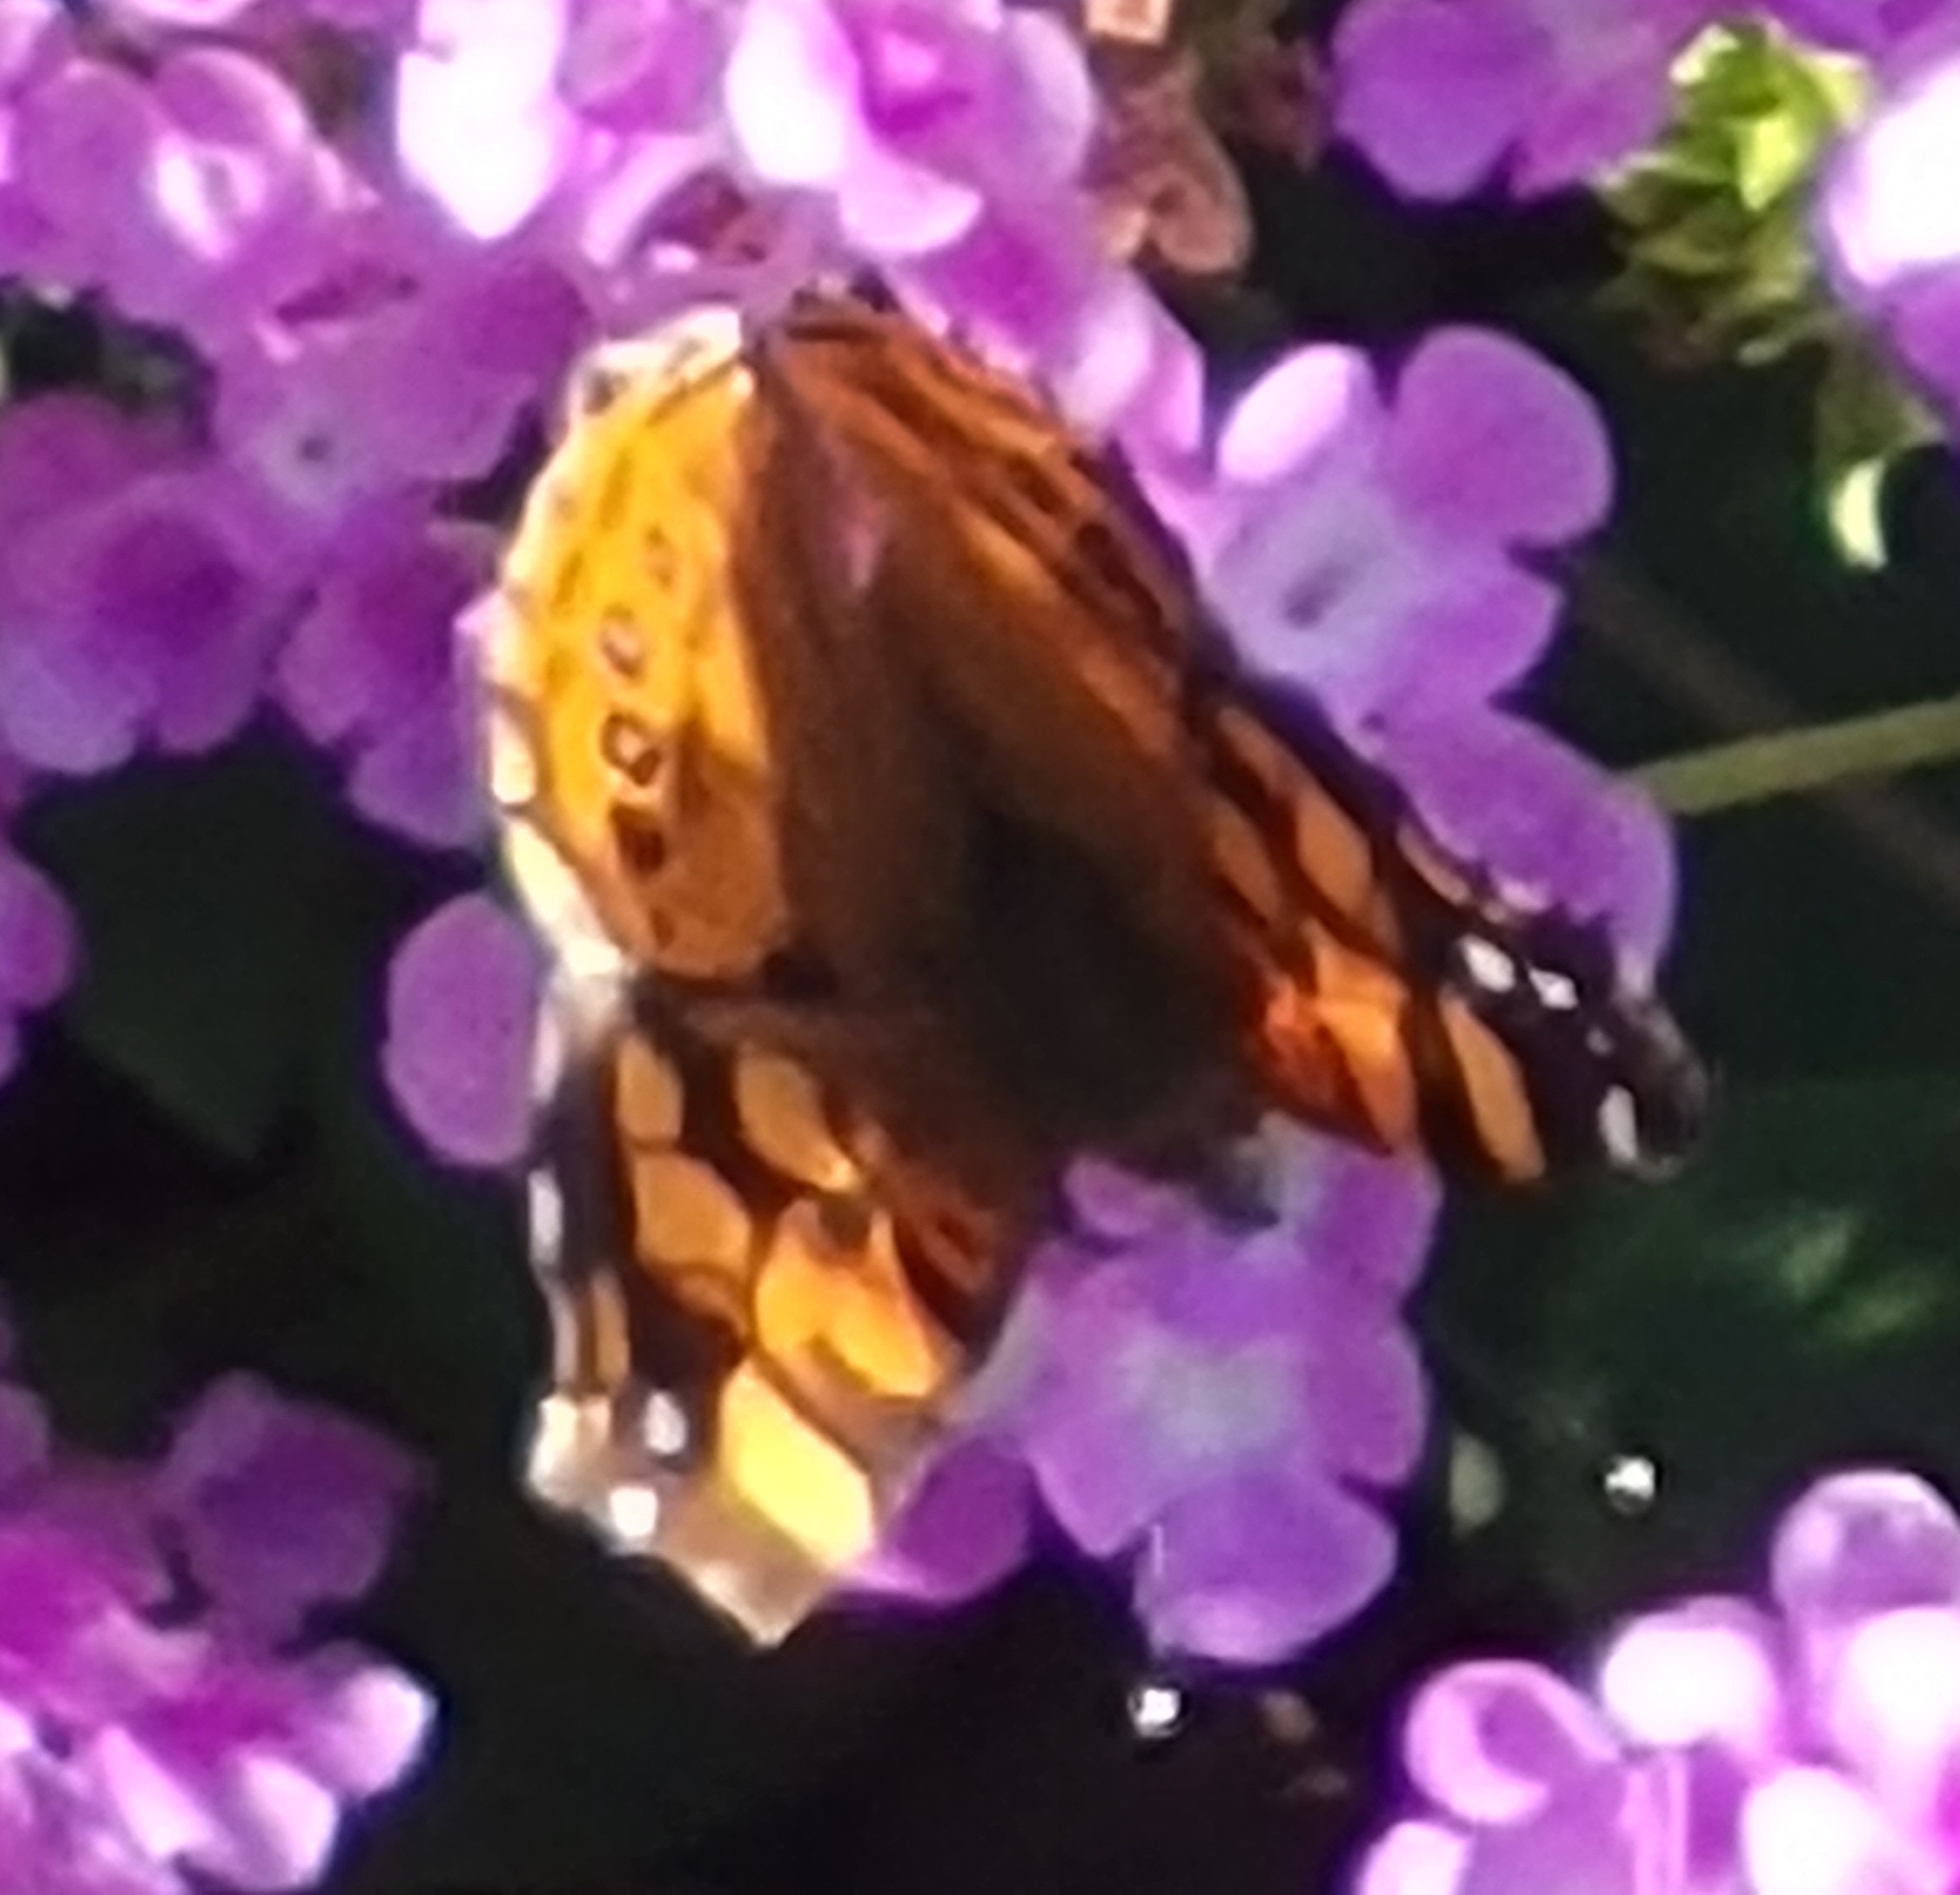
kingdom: Animalia
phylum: Arthropoda
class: Insecta
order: Lepidoptera
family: Nymphalidae
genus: Vanessa
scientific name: Vanessa annabella
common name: West coast lady
